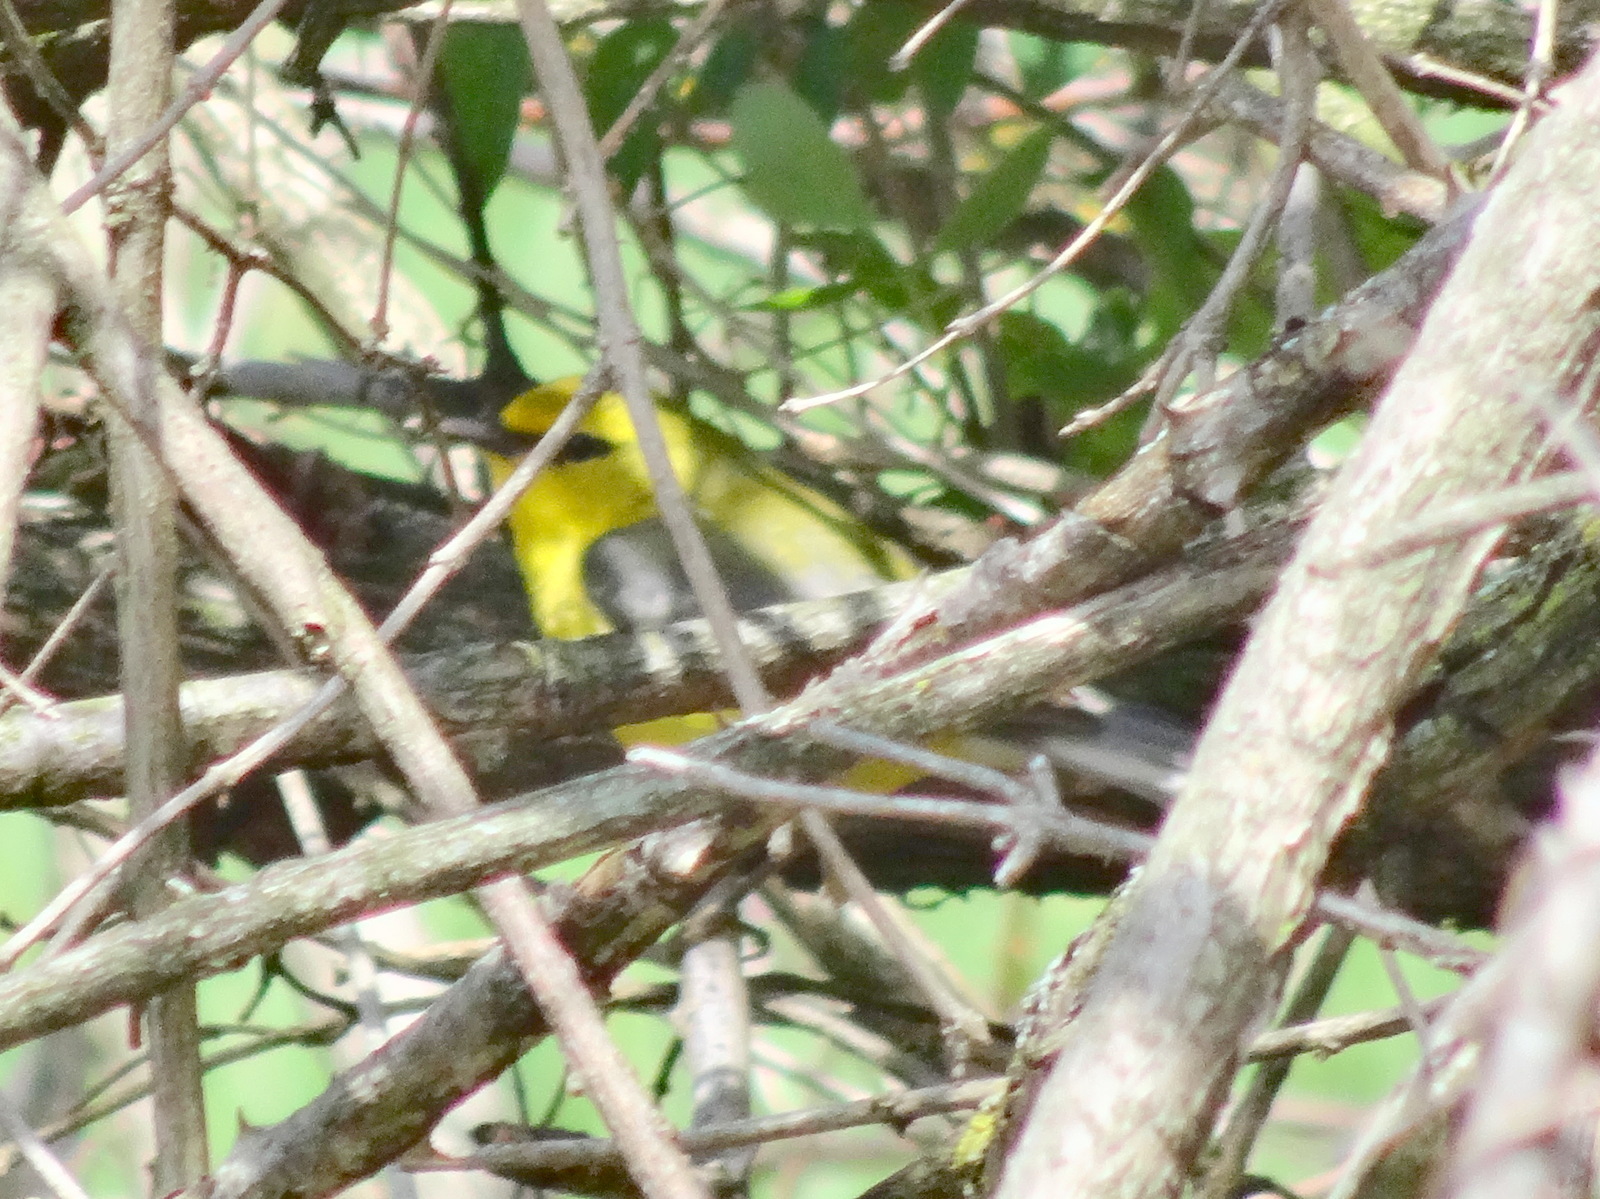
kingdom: Animalia
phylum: Chordata
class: Aves
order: Passeriformes
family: Parulidae
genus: Vermivora
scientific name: Vermivora cyanoptera
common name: Blue-winged warbler
